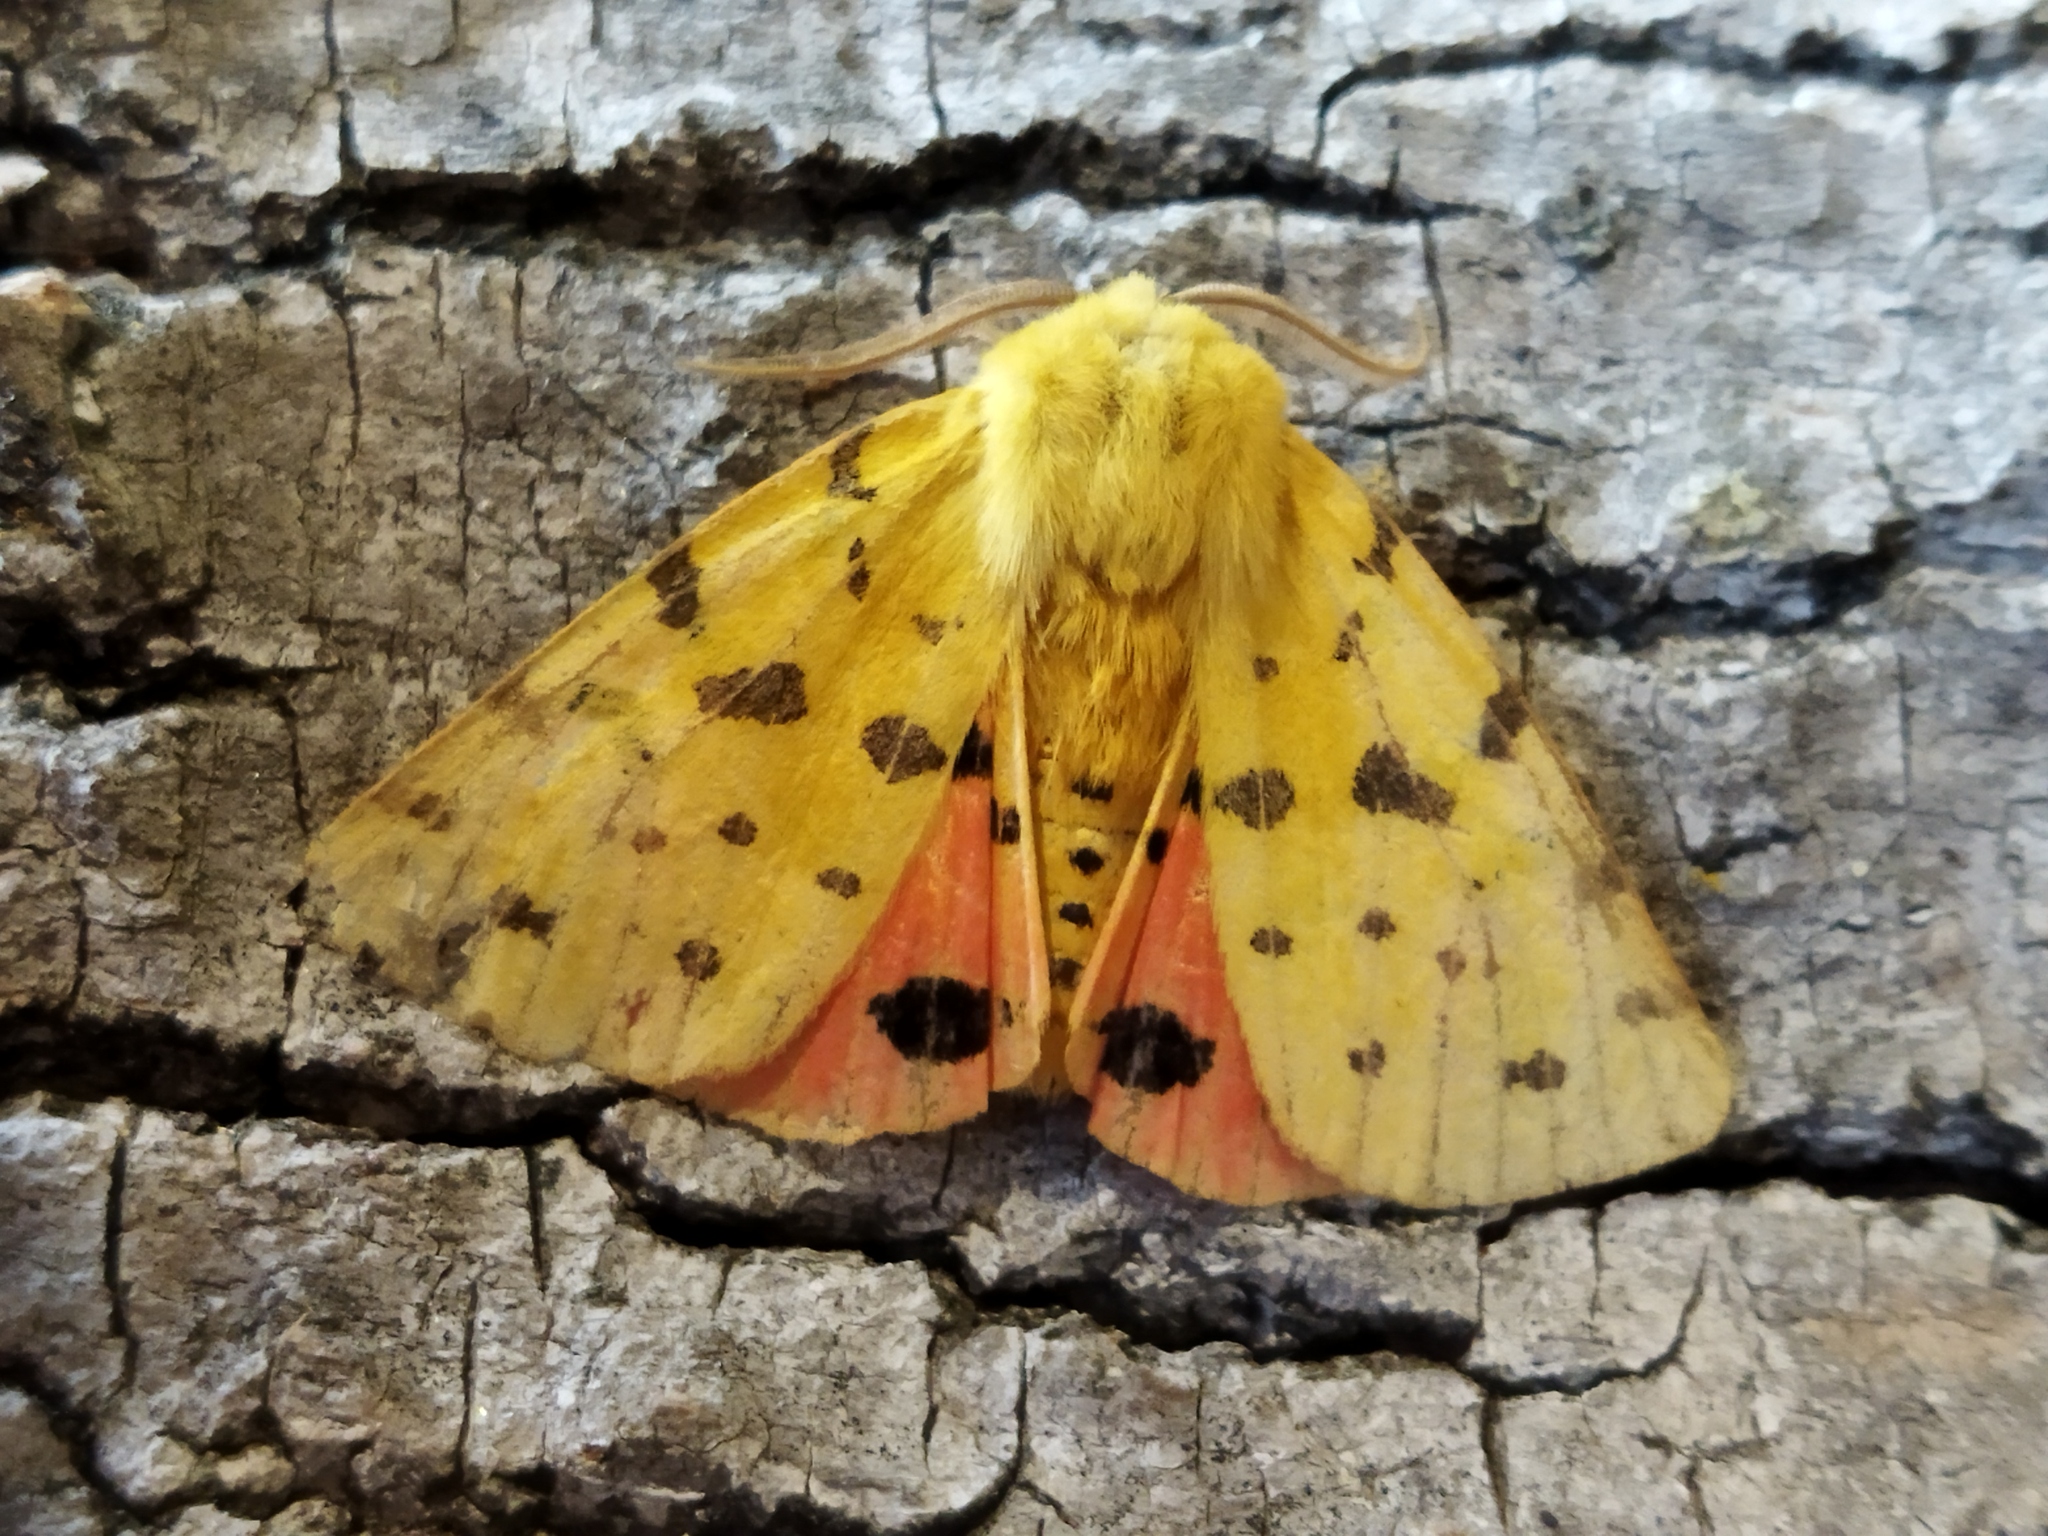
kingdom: Animalia
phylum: Arthropoda
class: Insecta
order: Lepidoptera
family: Erebidae
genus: Rhyparia
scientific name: Rhyparia purpurata
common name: Purple tiger
